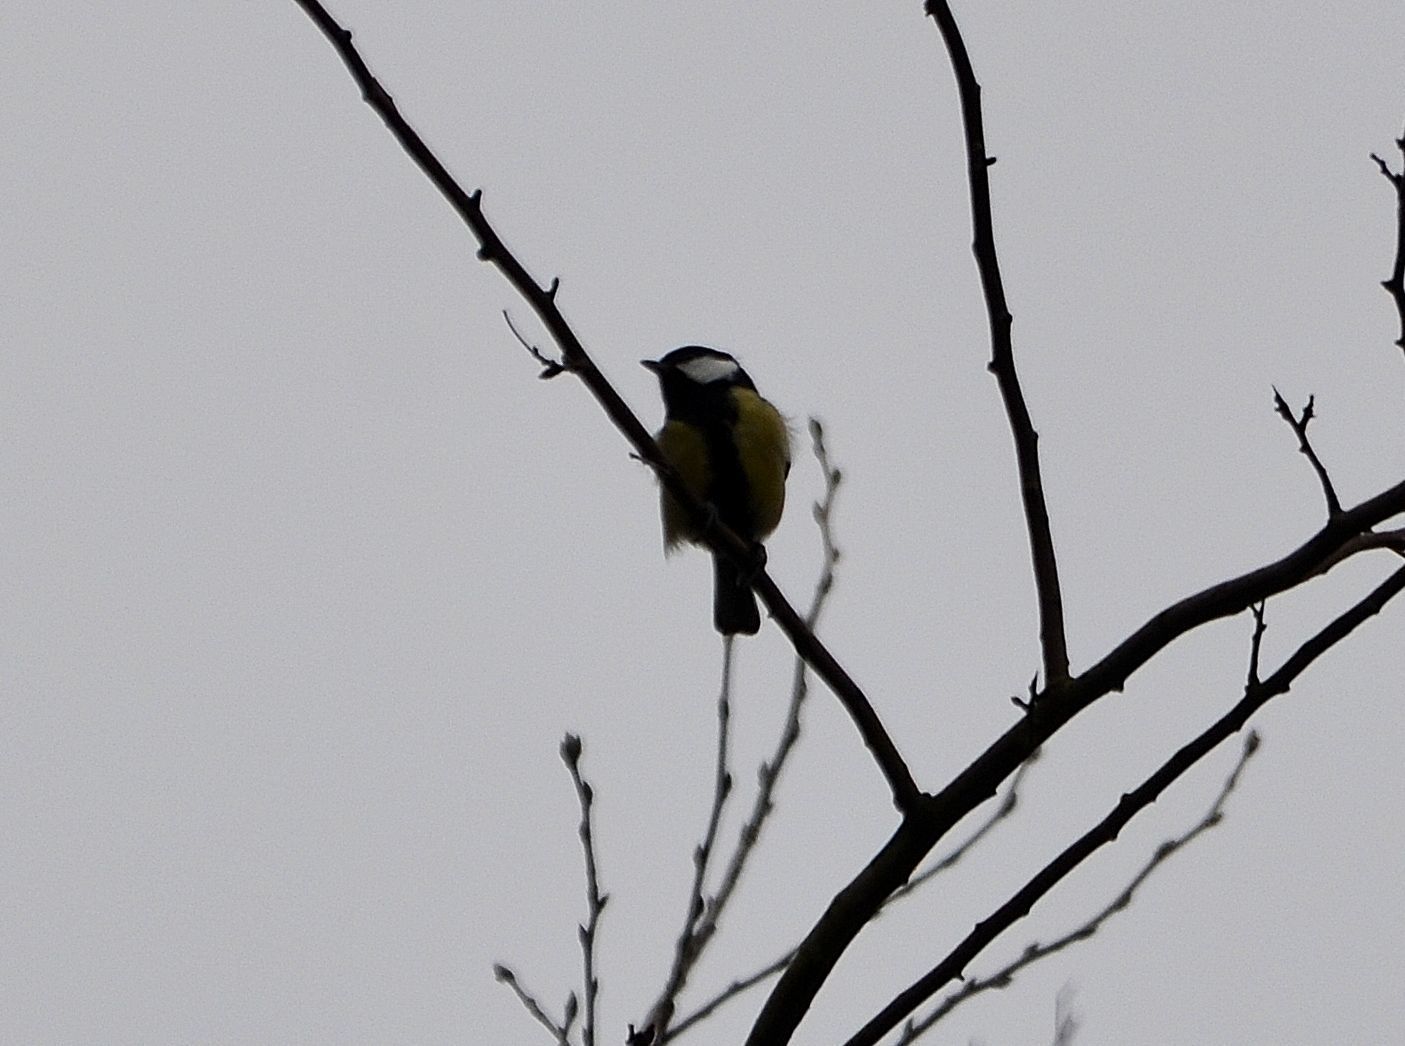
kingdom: Animalia
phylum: Chordata
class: Aves
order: Passeriformes
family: Paridae
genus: Parus
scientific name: Parus major
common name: Great tit
